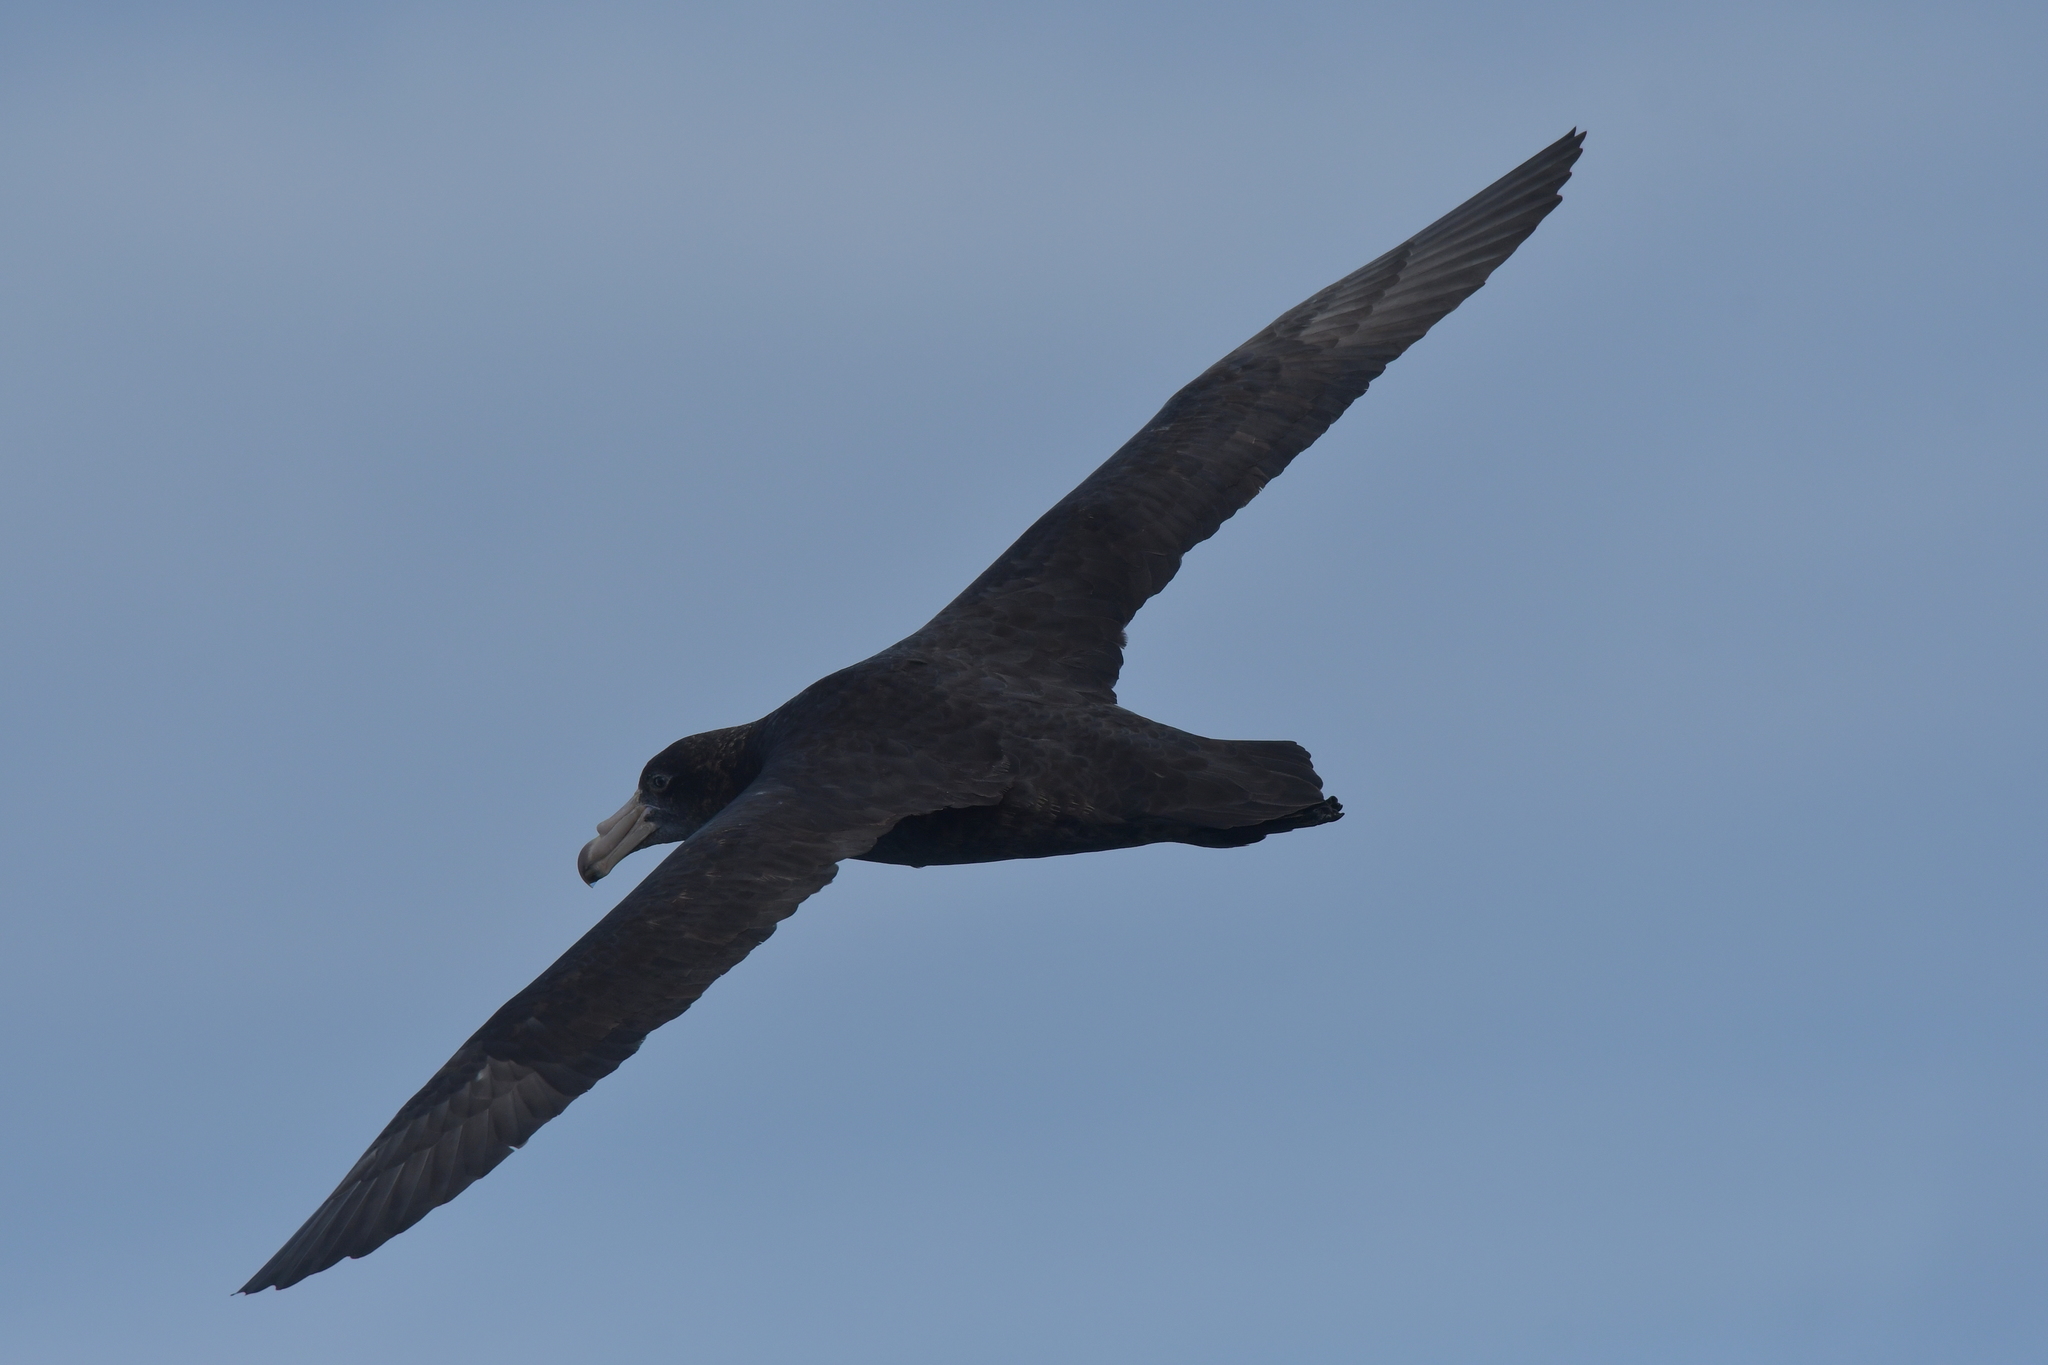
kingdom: Animalia
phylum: Chordata
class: Aves
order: Procellariiformes
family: Procellariidae
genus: Macronectes
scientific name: Macronectes halli
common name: Northern giant petrel
